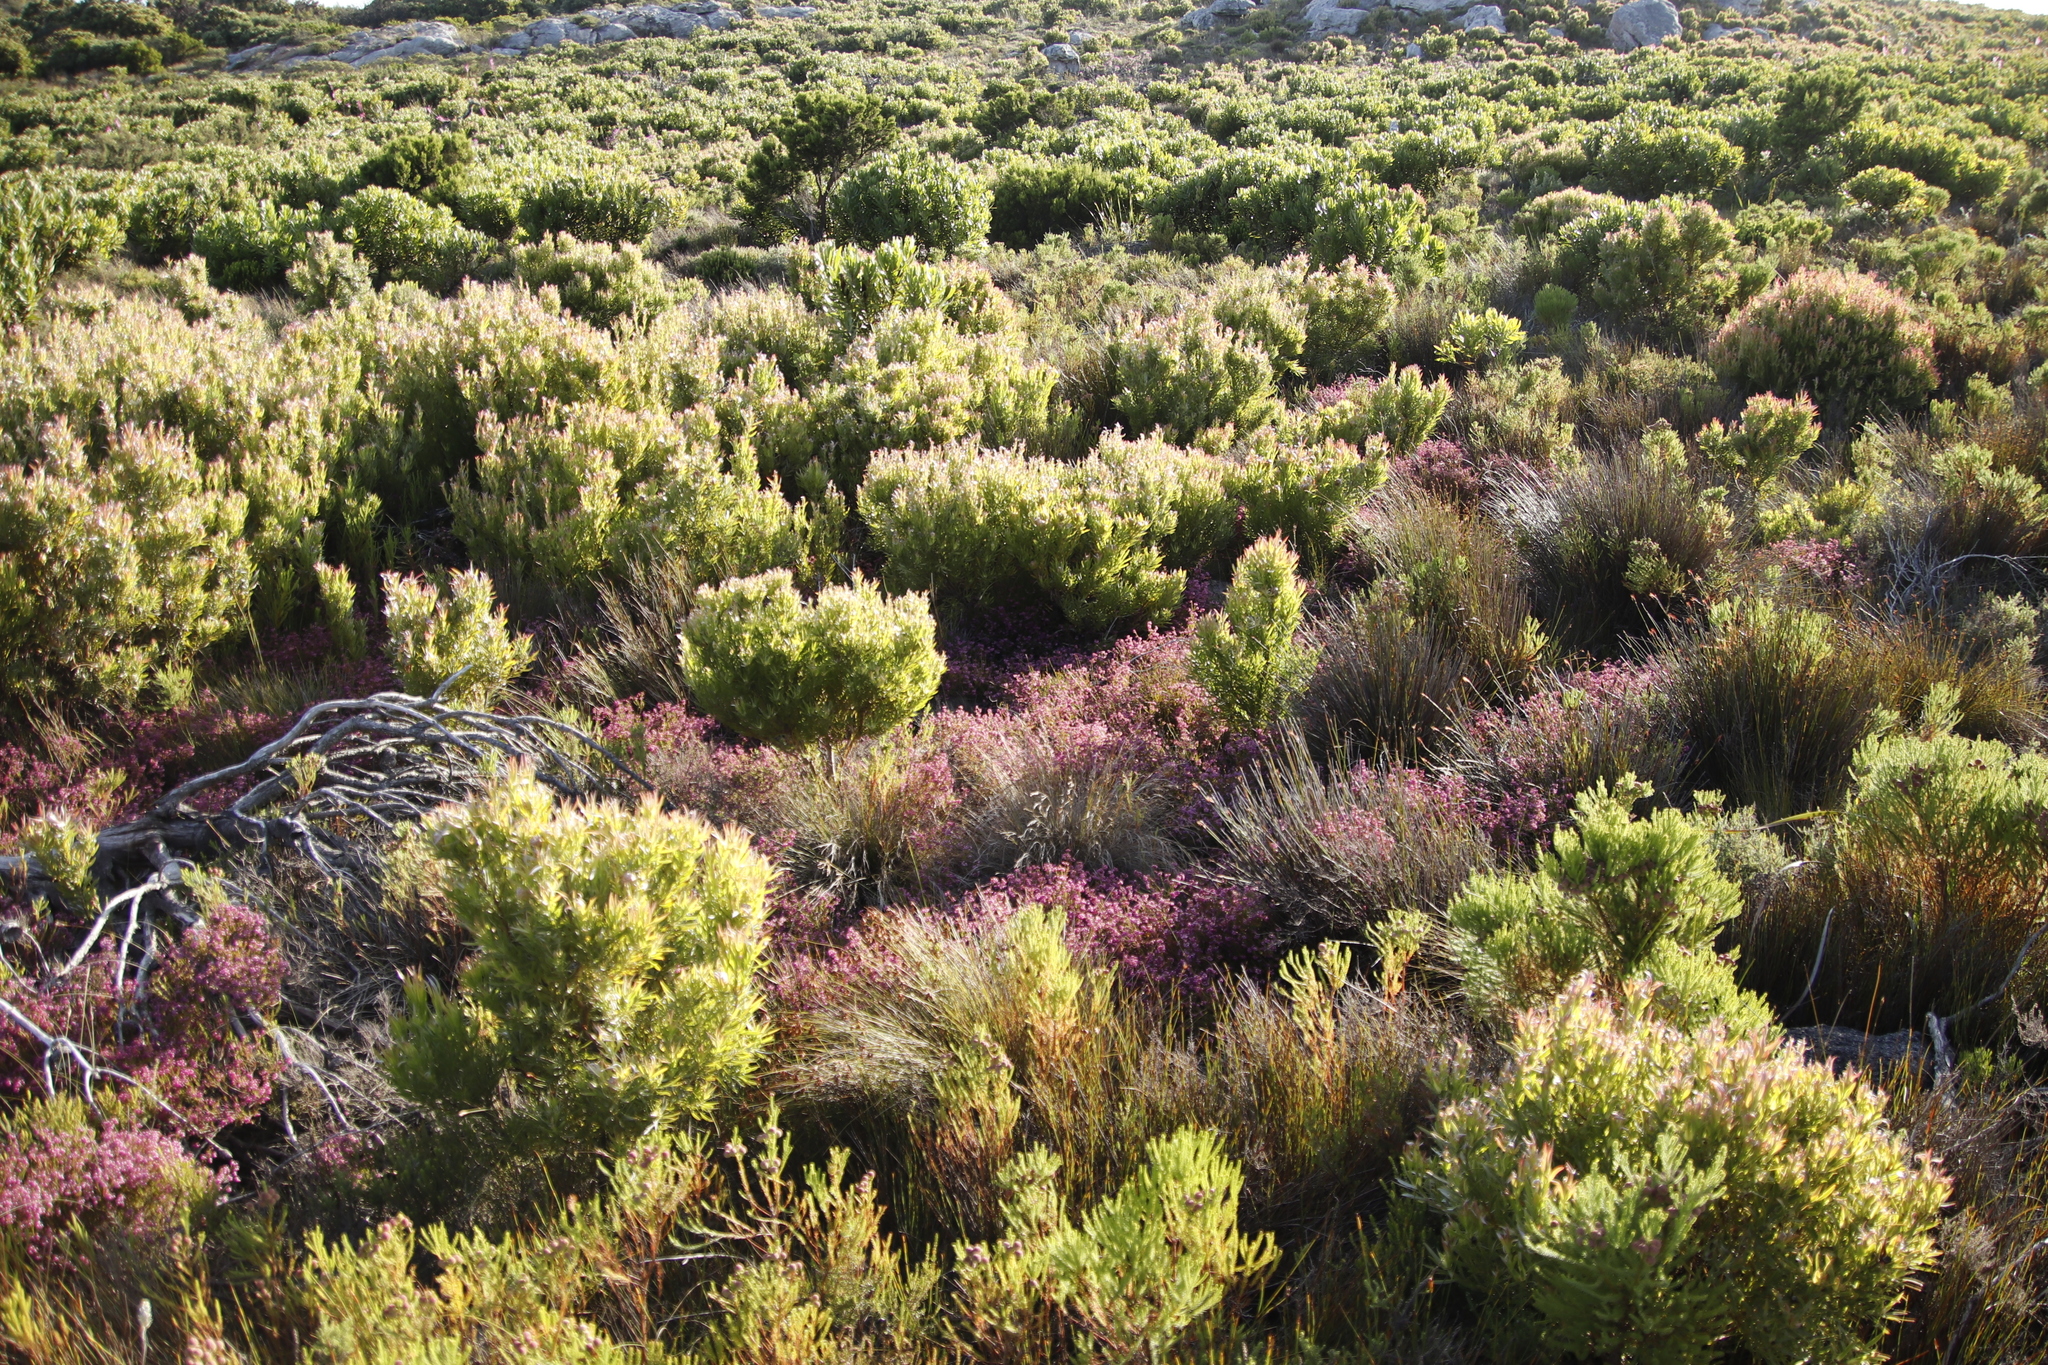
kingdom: Plantae
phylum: Tracheophyta
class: Magnoliopsida
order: Ericales
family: Ericaceae
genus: Erica
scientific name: Erica multumbellifera
